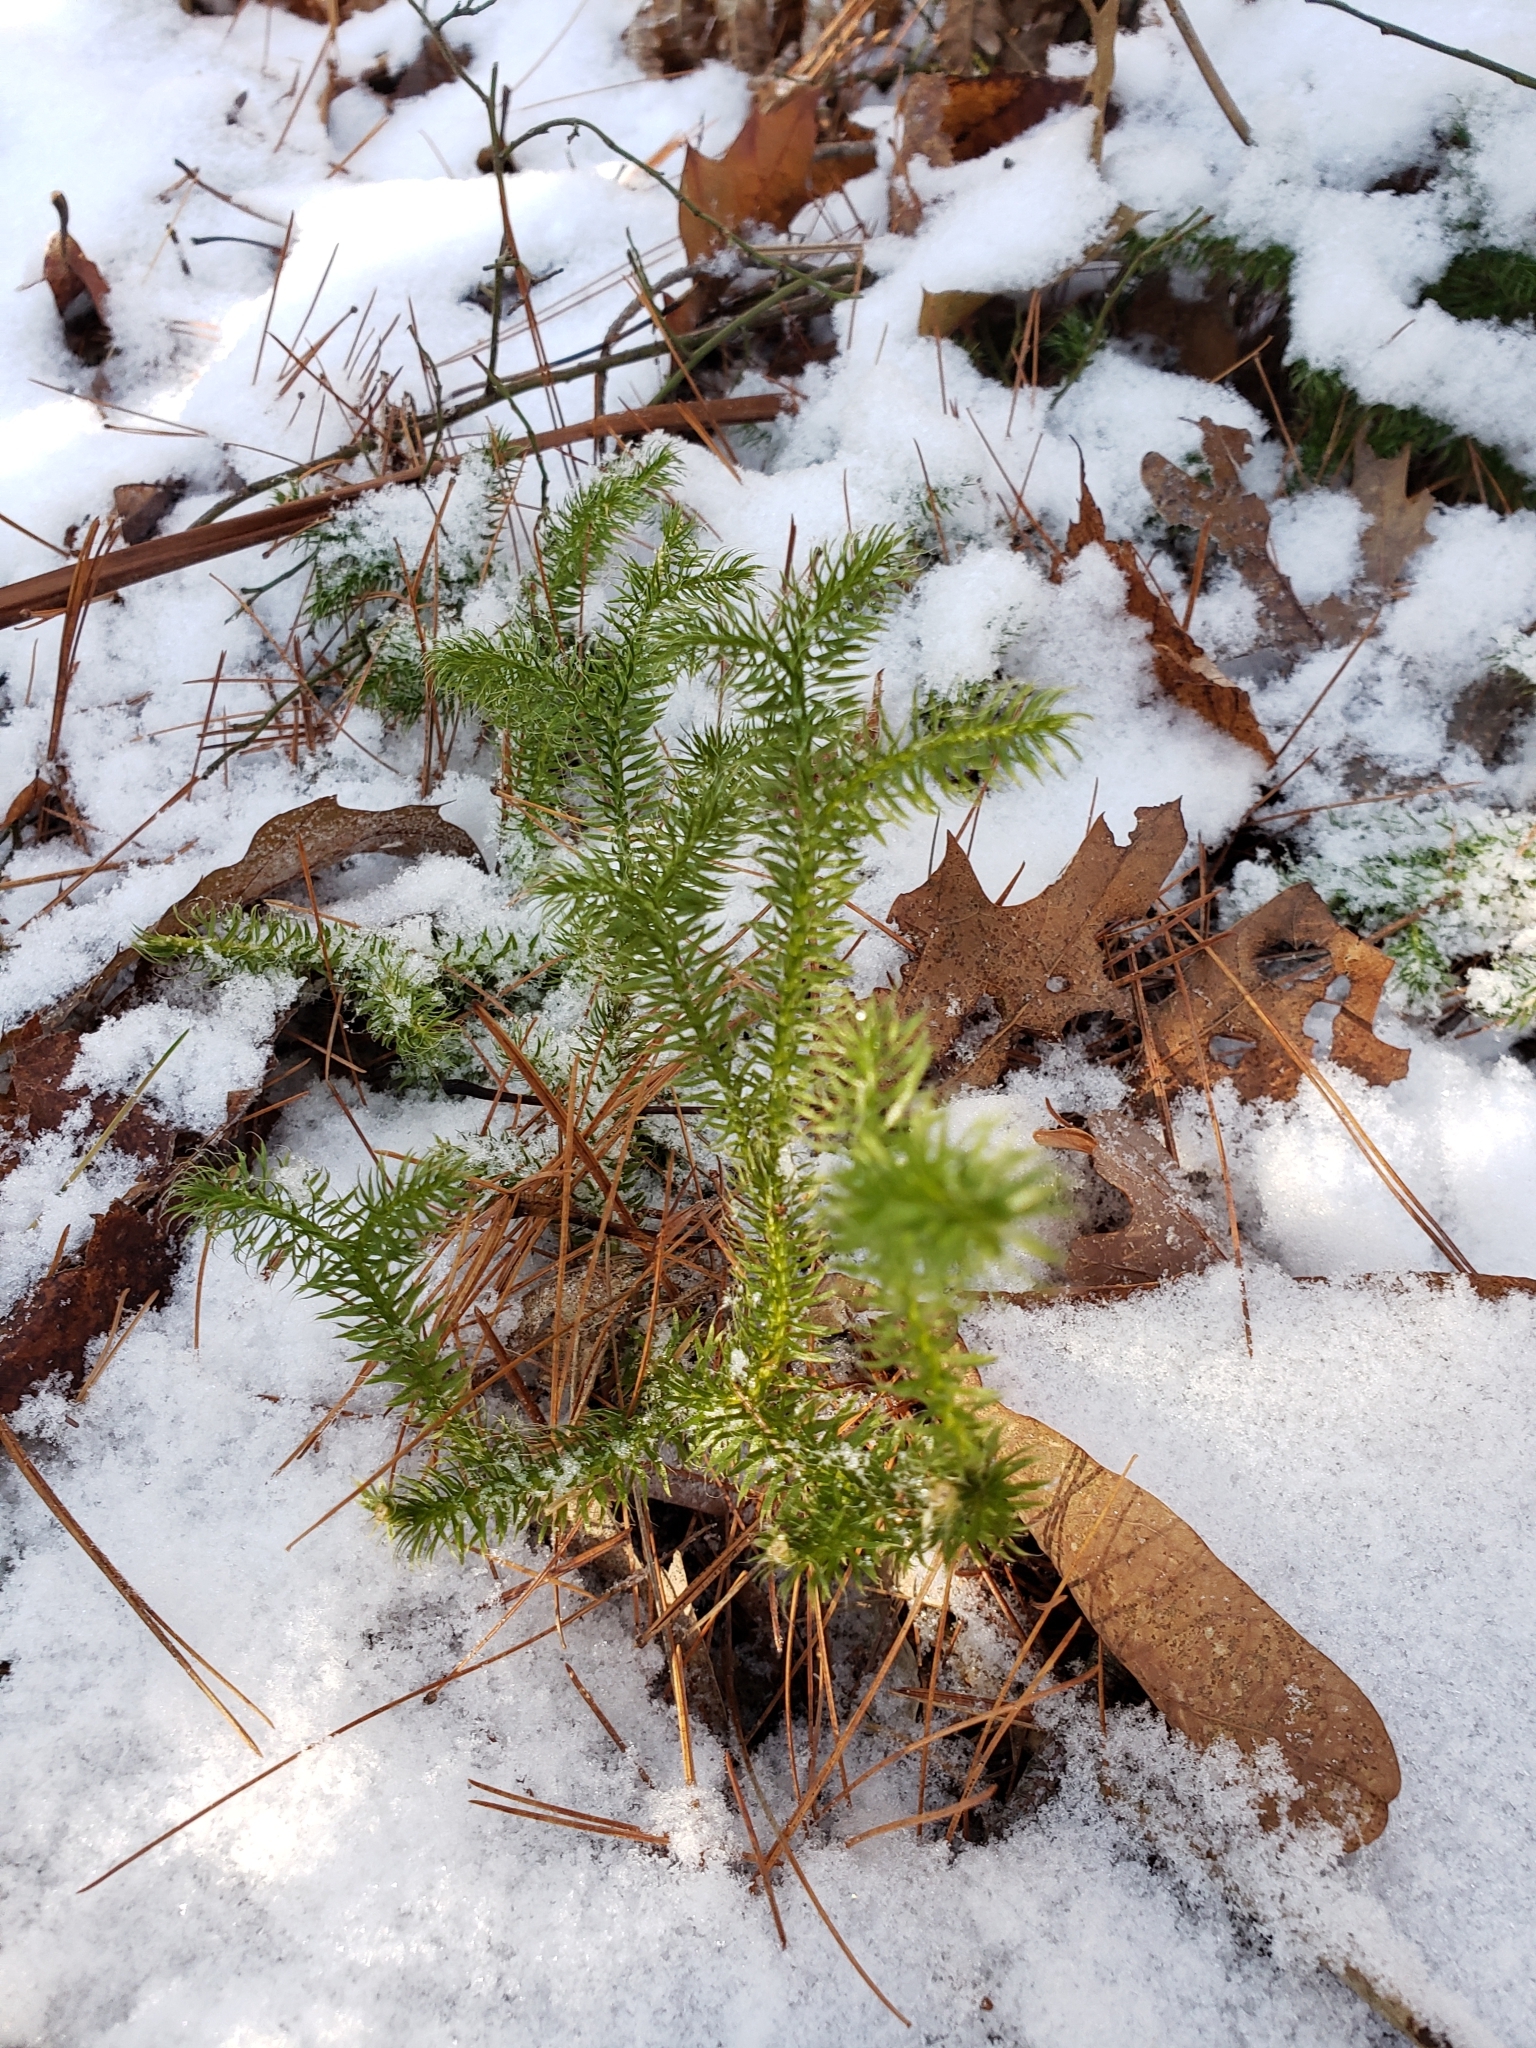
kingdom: Plantae
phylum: Tracheophyta
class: Lycopodiopsida
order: Lycopodiales
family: Lycopodiaceae
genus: Lycopodium
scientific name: Lycopodium clavatum
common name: Stag's-horn clubmoss
